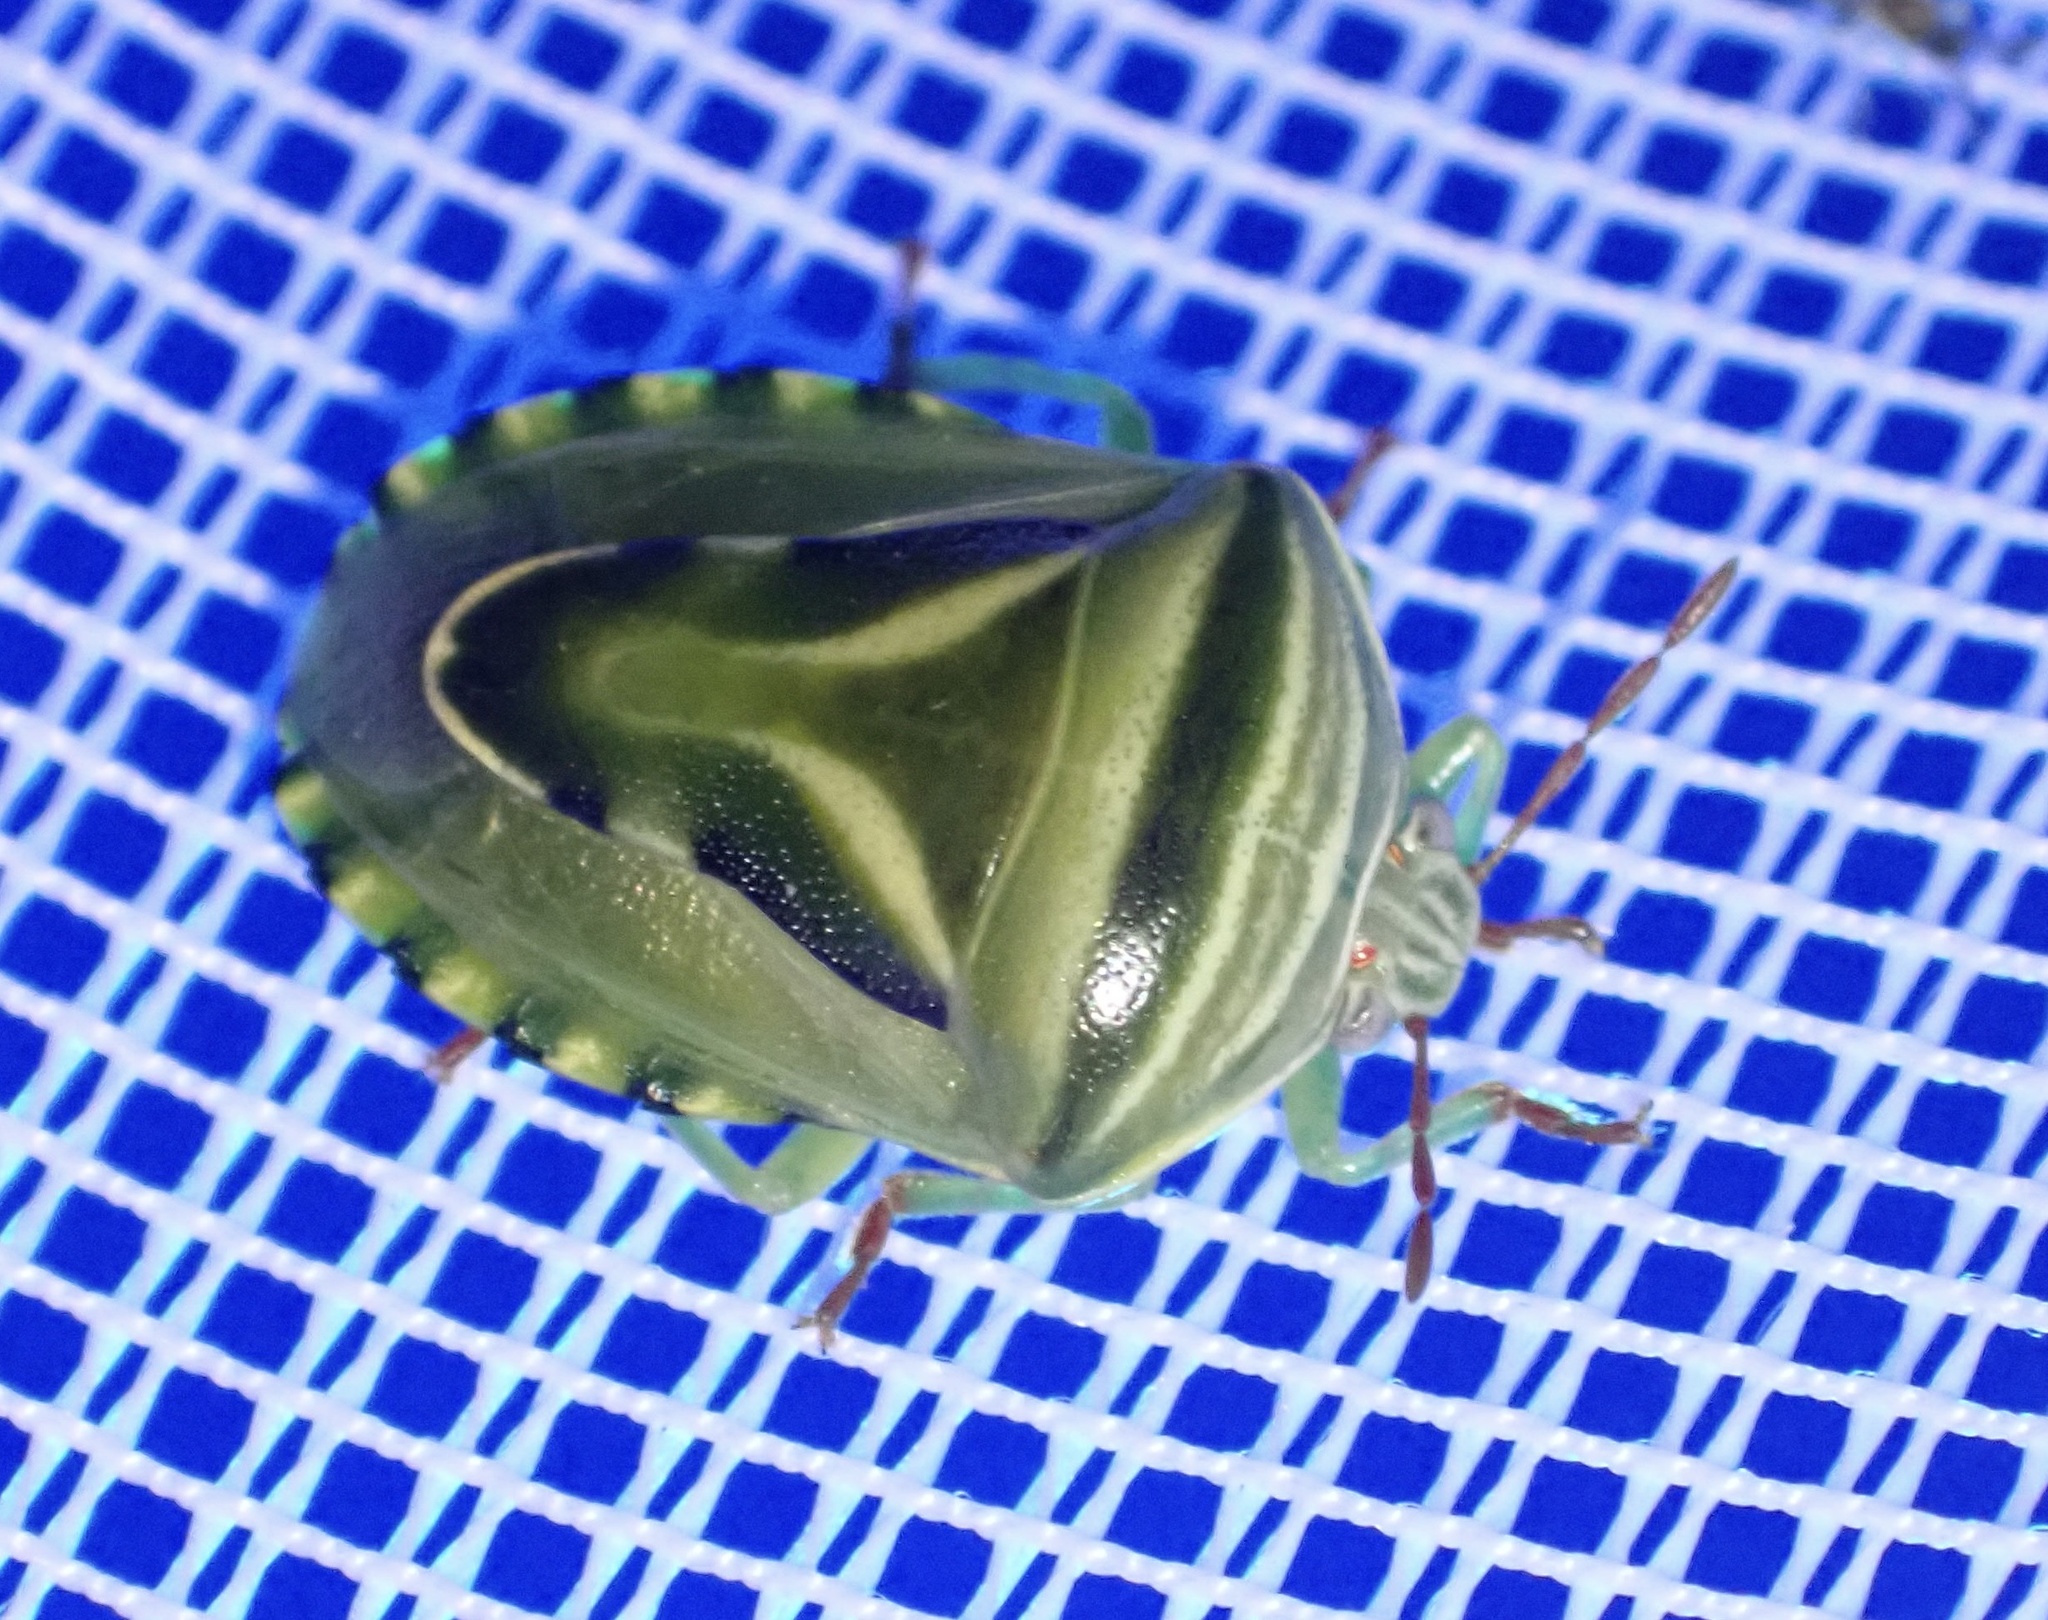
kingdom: Animalia
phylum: Arthropoda
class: Insecta
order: Hemiptera
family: Acanthosomatidae
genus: Lindbergicoris
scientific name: Lindbergicoris Platacantha lutea
